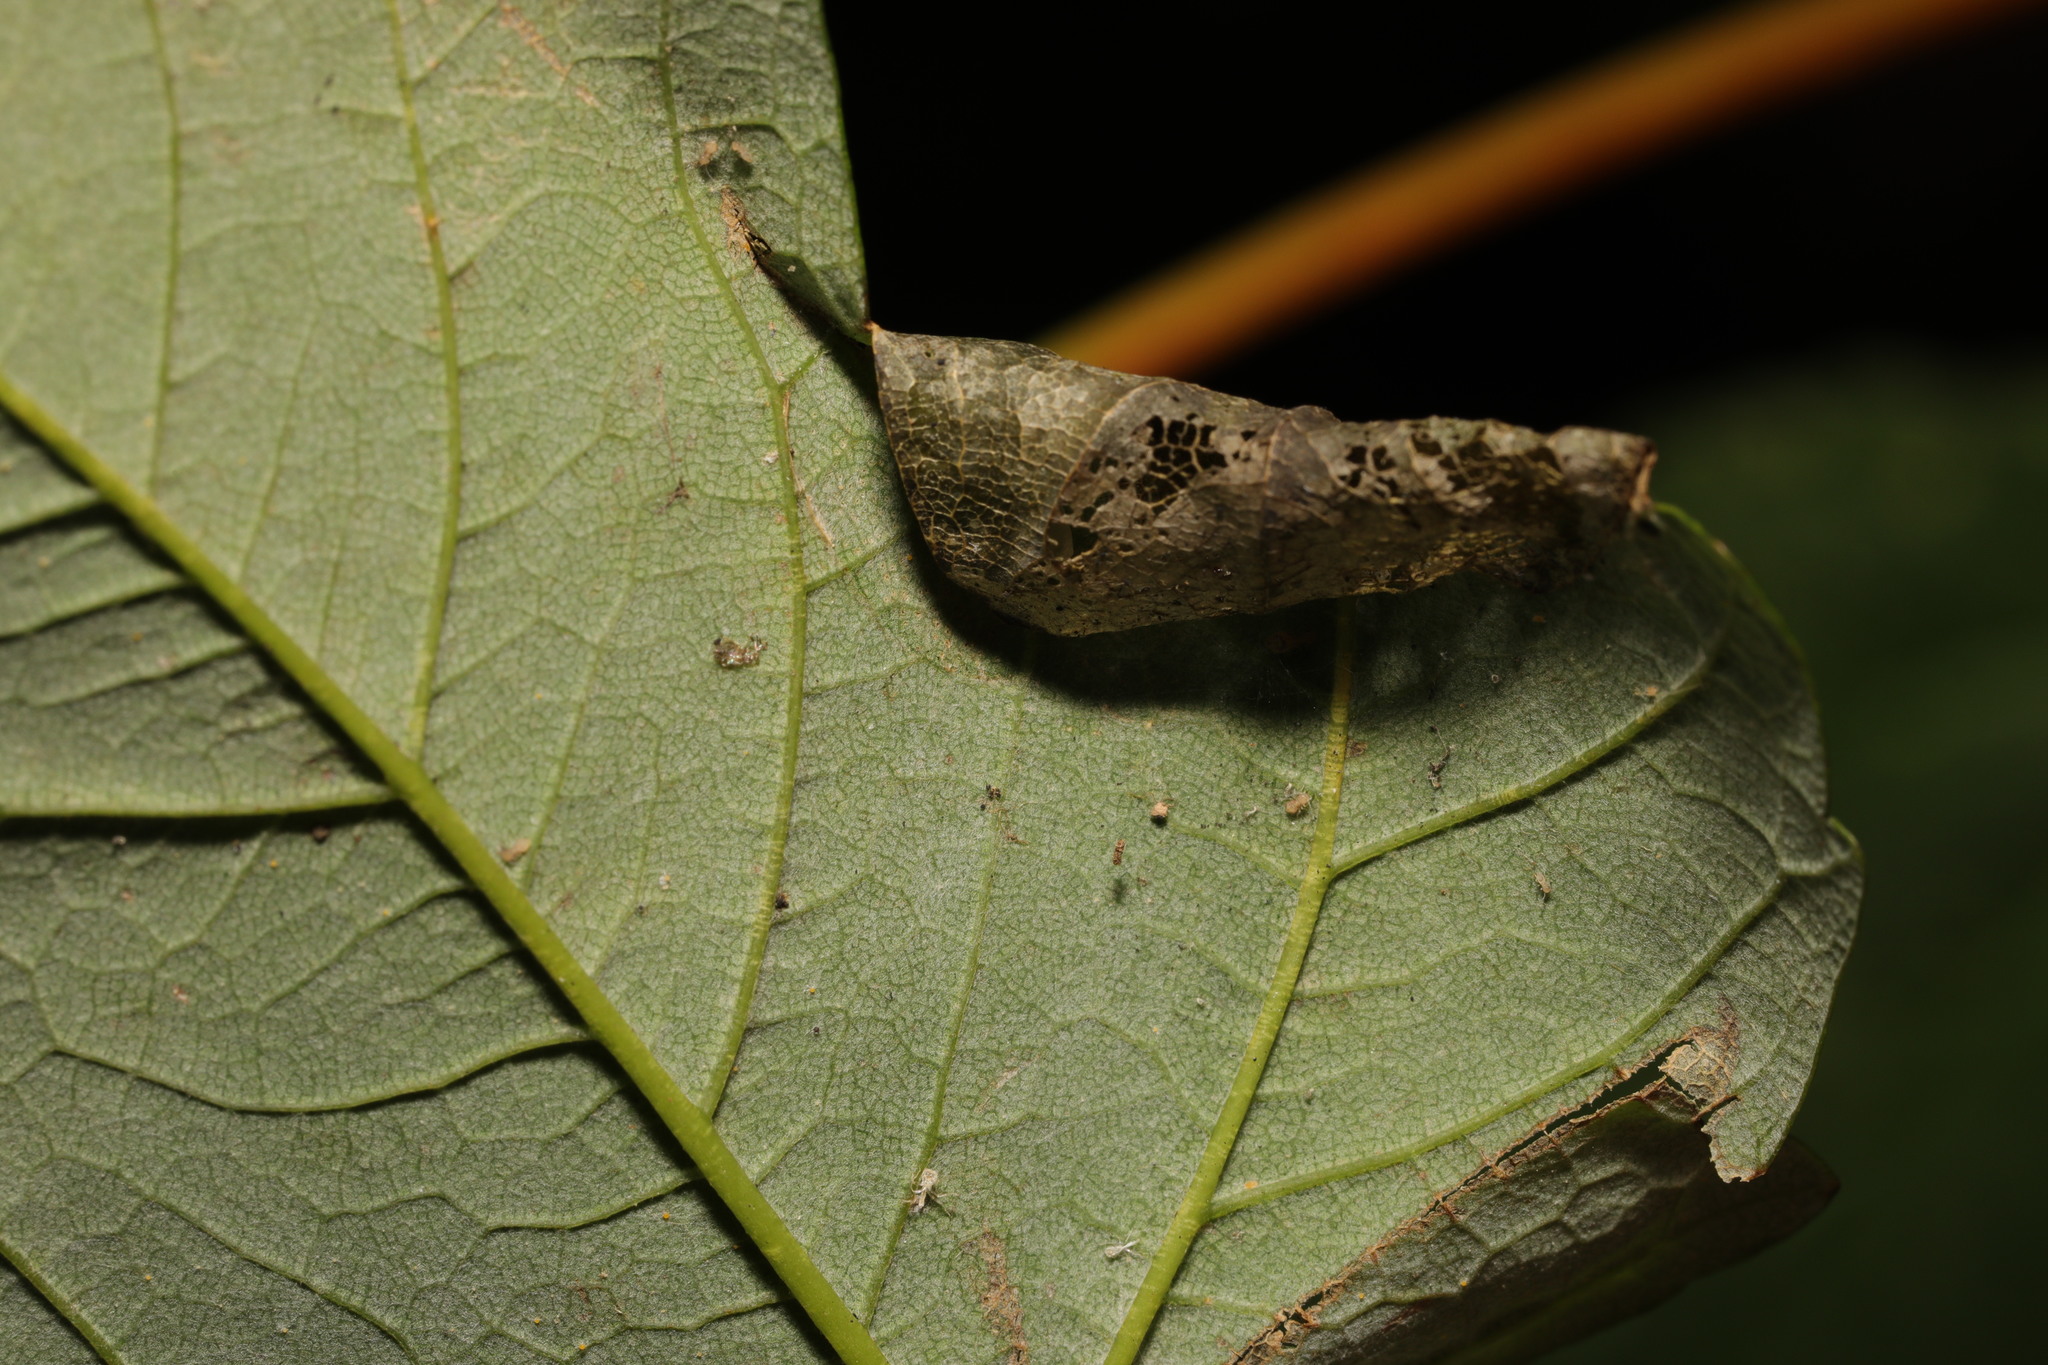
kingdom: Animalia
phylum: Arthropoda
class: Insecta
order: Lepidoptera
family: Gracillariidae
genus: Caloptilia
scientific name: Caloptilia rufipennella
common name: Small red slender
